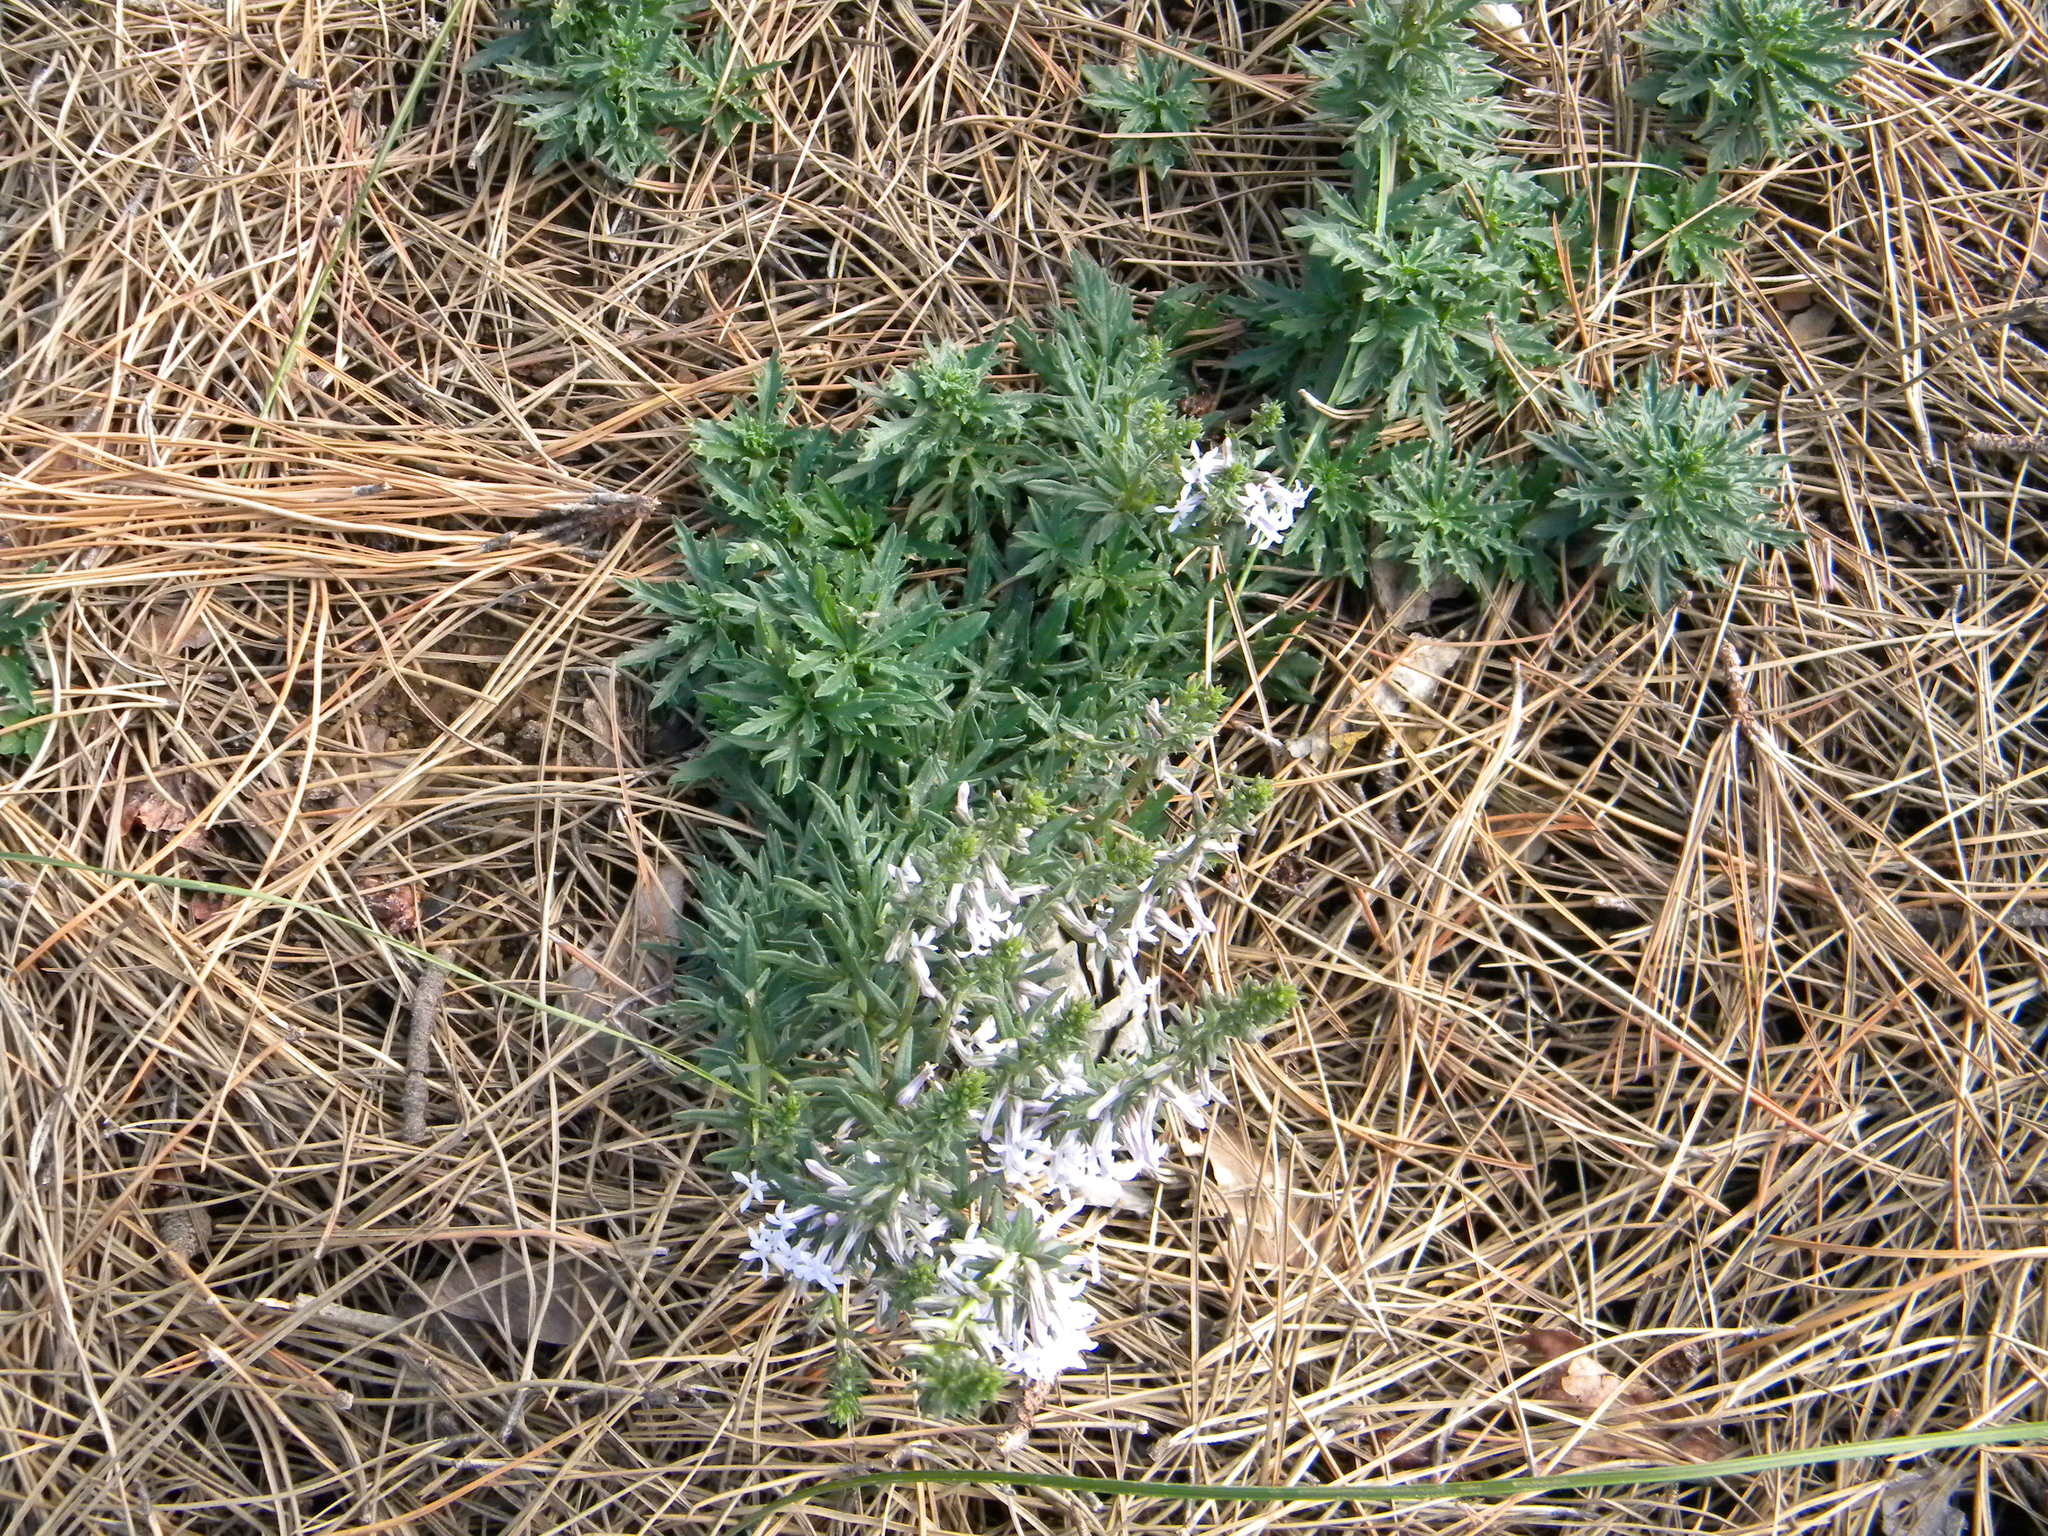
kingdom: Plantae
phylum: Tracheophyta
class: Magnoliopsida
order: Asterales
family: Campanulaceae
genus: Cyphia
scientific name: Cyphia bulbosa
